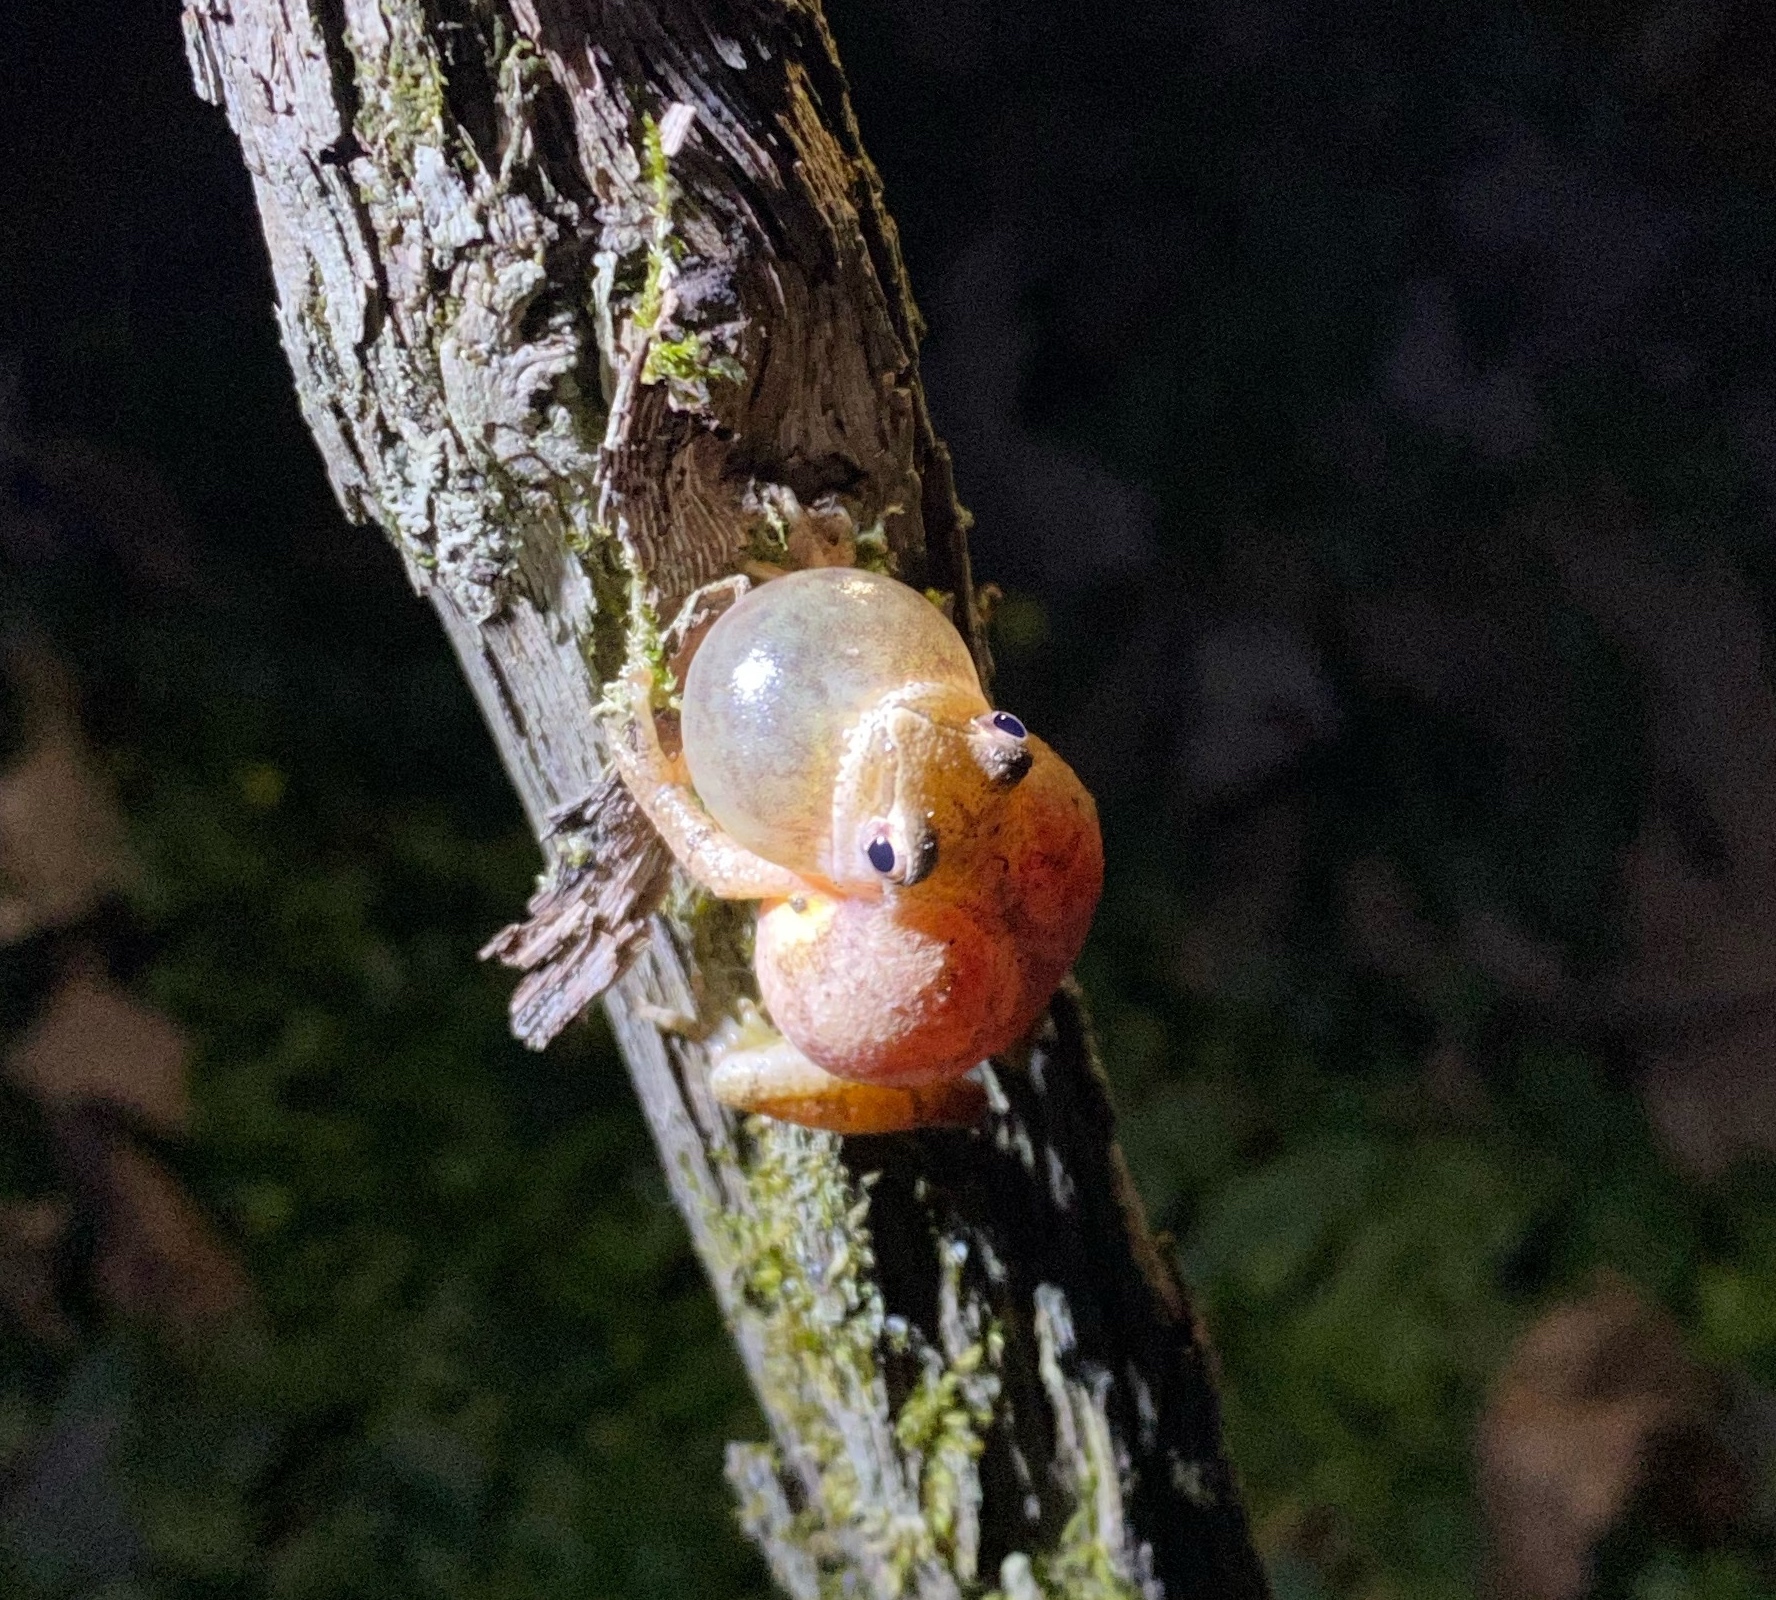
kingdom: Animalia
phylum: Chordata
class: Amphibia
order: Anura
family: Hylidae
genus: Pseudacris
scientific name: Pseudacris crucifer
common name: Spring peeper
